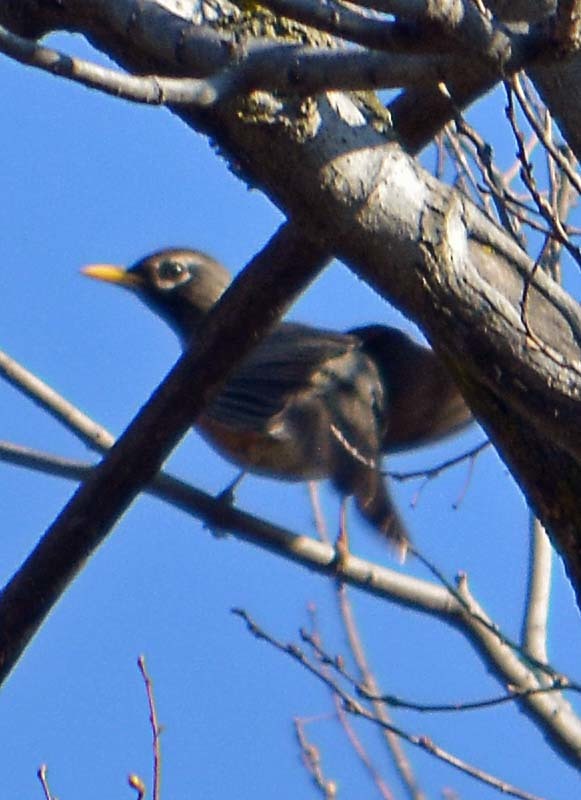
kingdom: Animalia
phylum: Chordata
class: Aves
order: Passeriformes
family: Turdidae
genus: Turdus
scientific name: Turdus migratorius
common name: American robin
